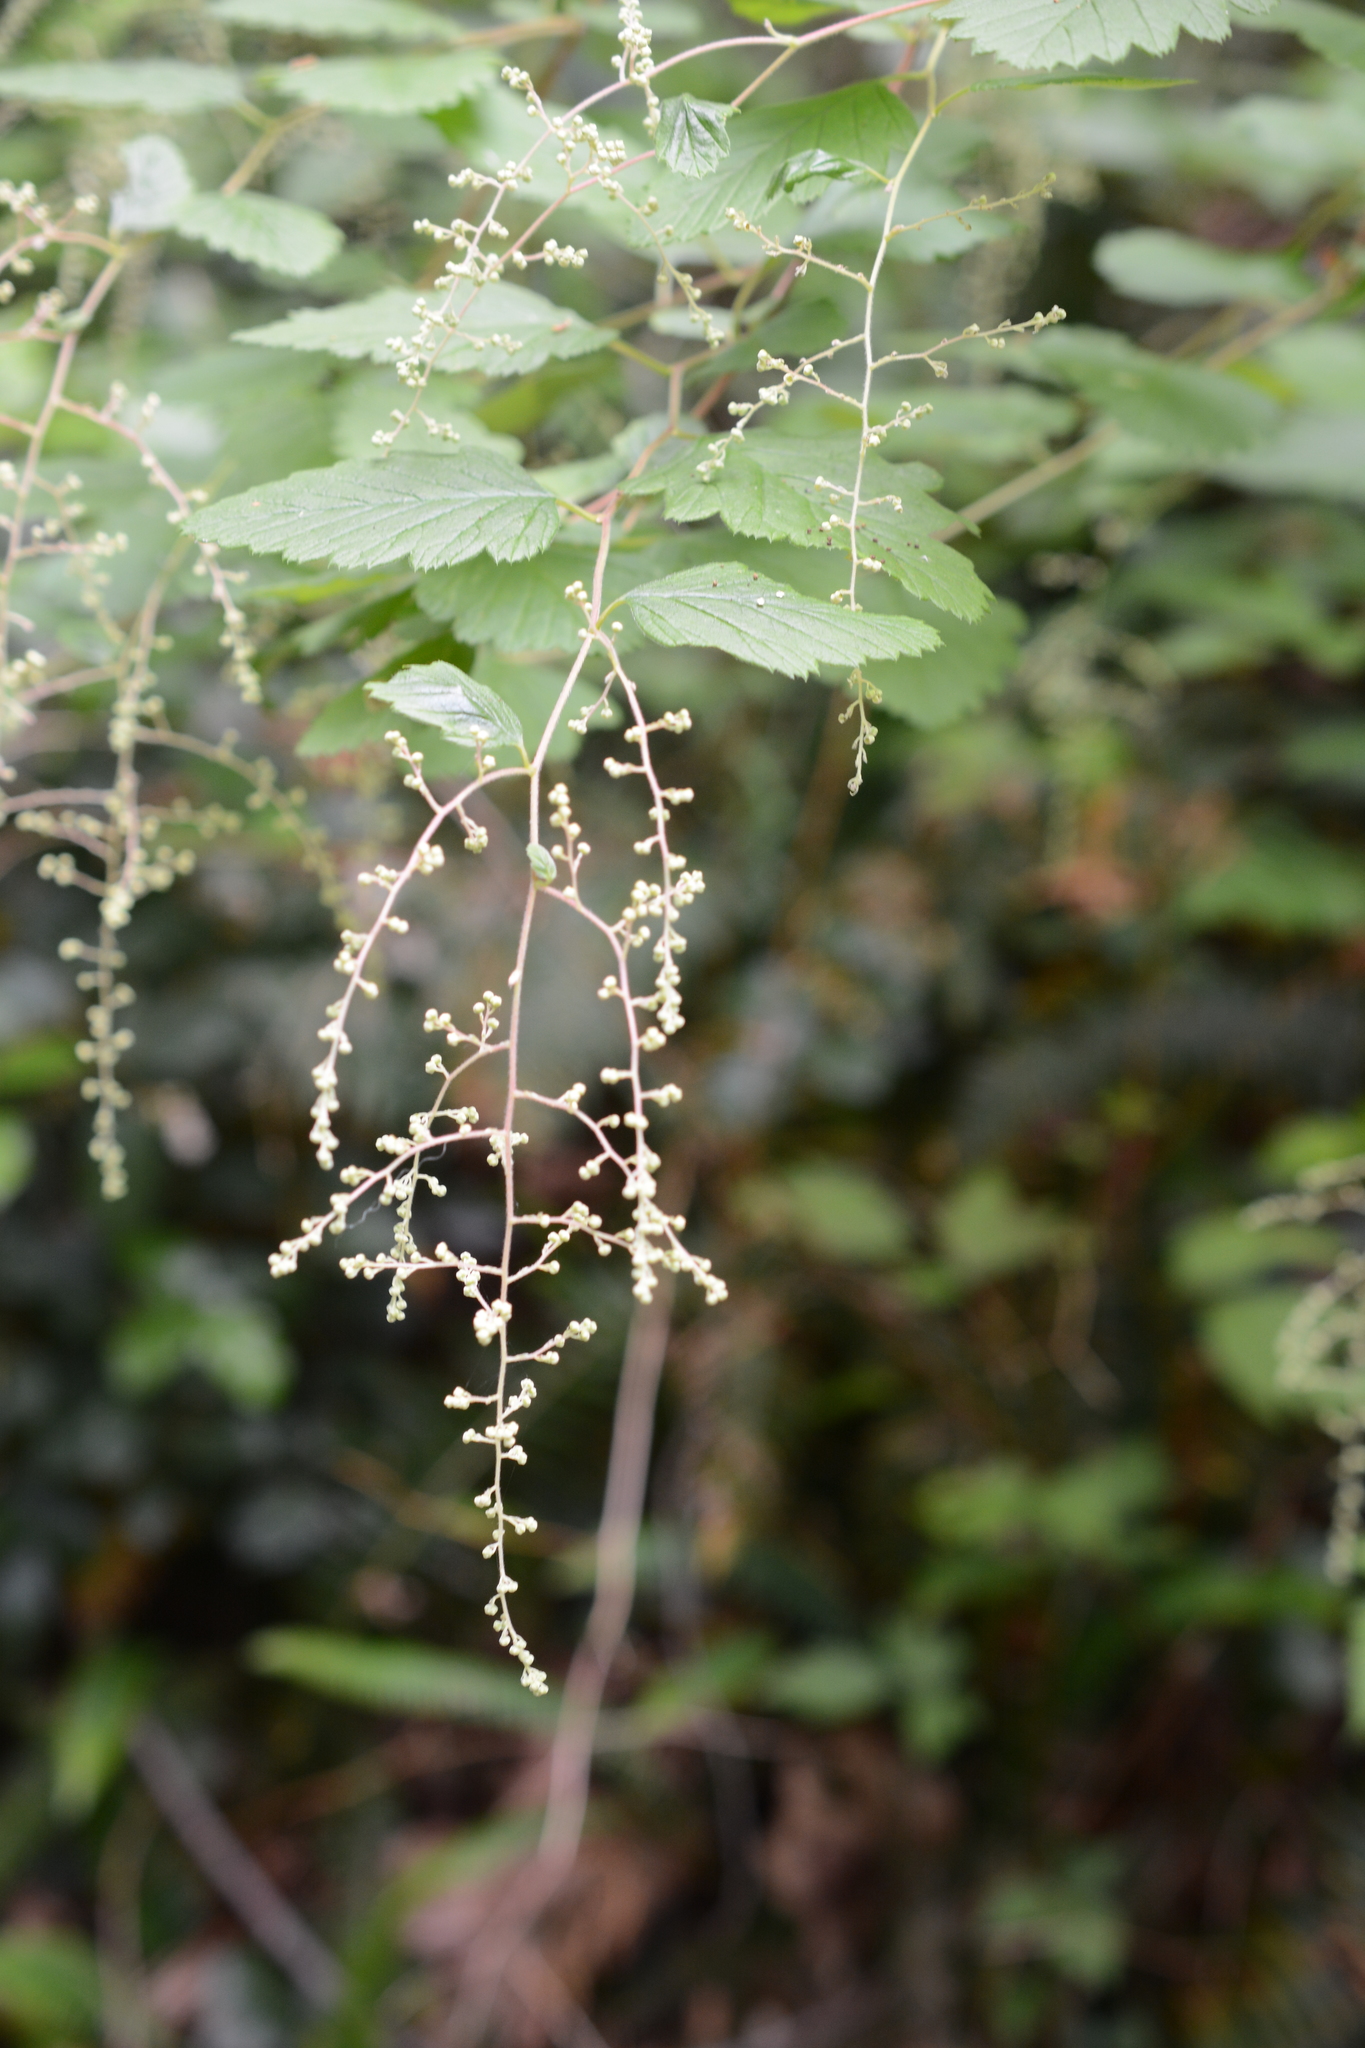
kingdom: Plantae
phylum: Tracheophyta
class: Magnoliopsida
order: Rosales
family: Rosaceae
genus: Holodiscus
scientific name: Holodiscus discolor
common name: Oceanspray
